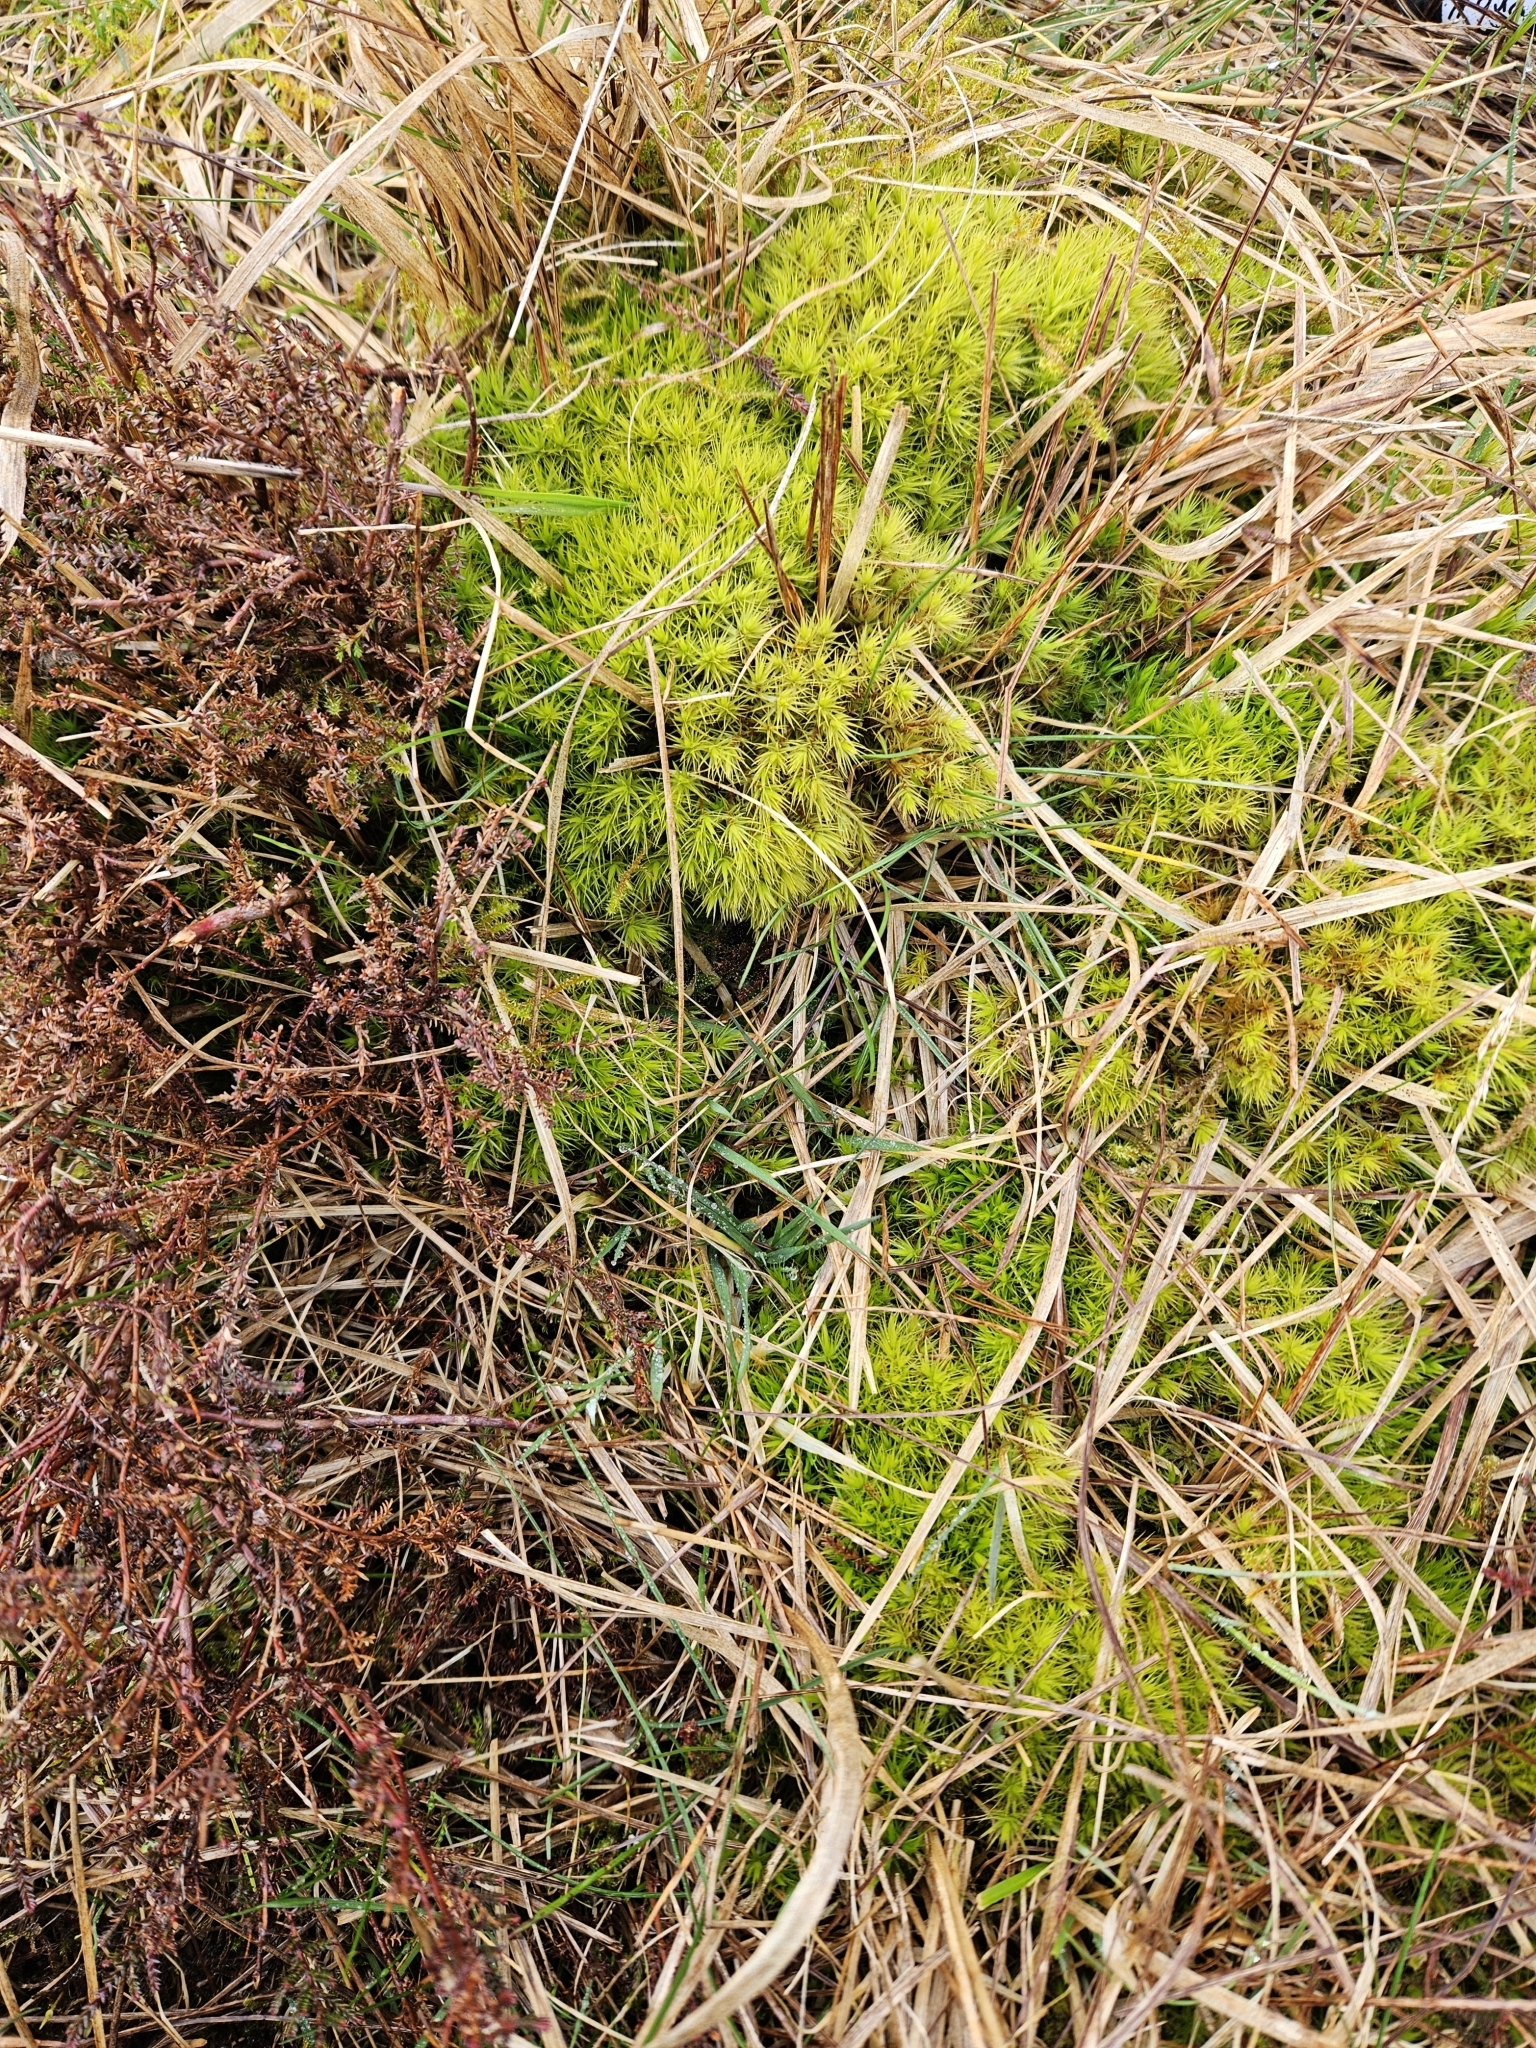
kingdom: Plantae
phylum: Bryophyta
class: Bryopsida
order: Dicranales
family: Dicranaceae
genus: Dicranum
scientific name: Dicranum scoparium
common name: Broom fork-moss
